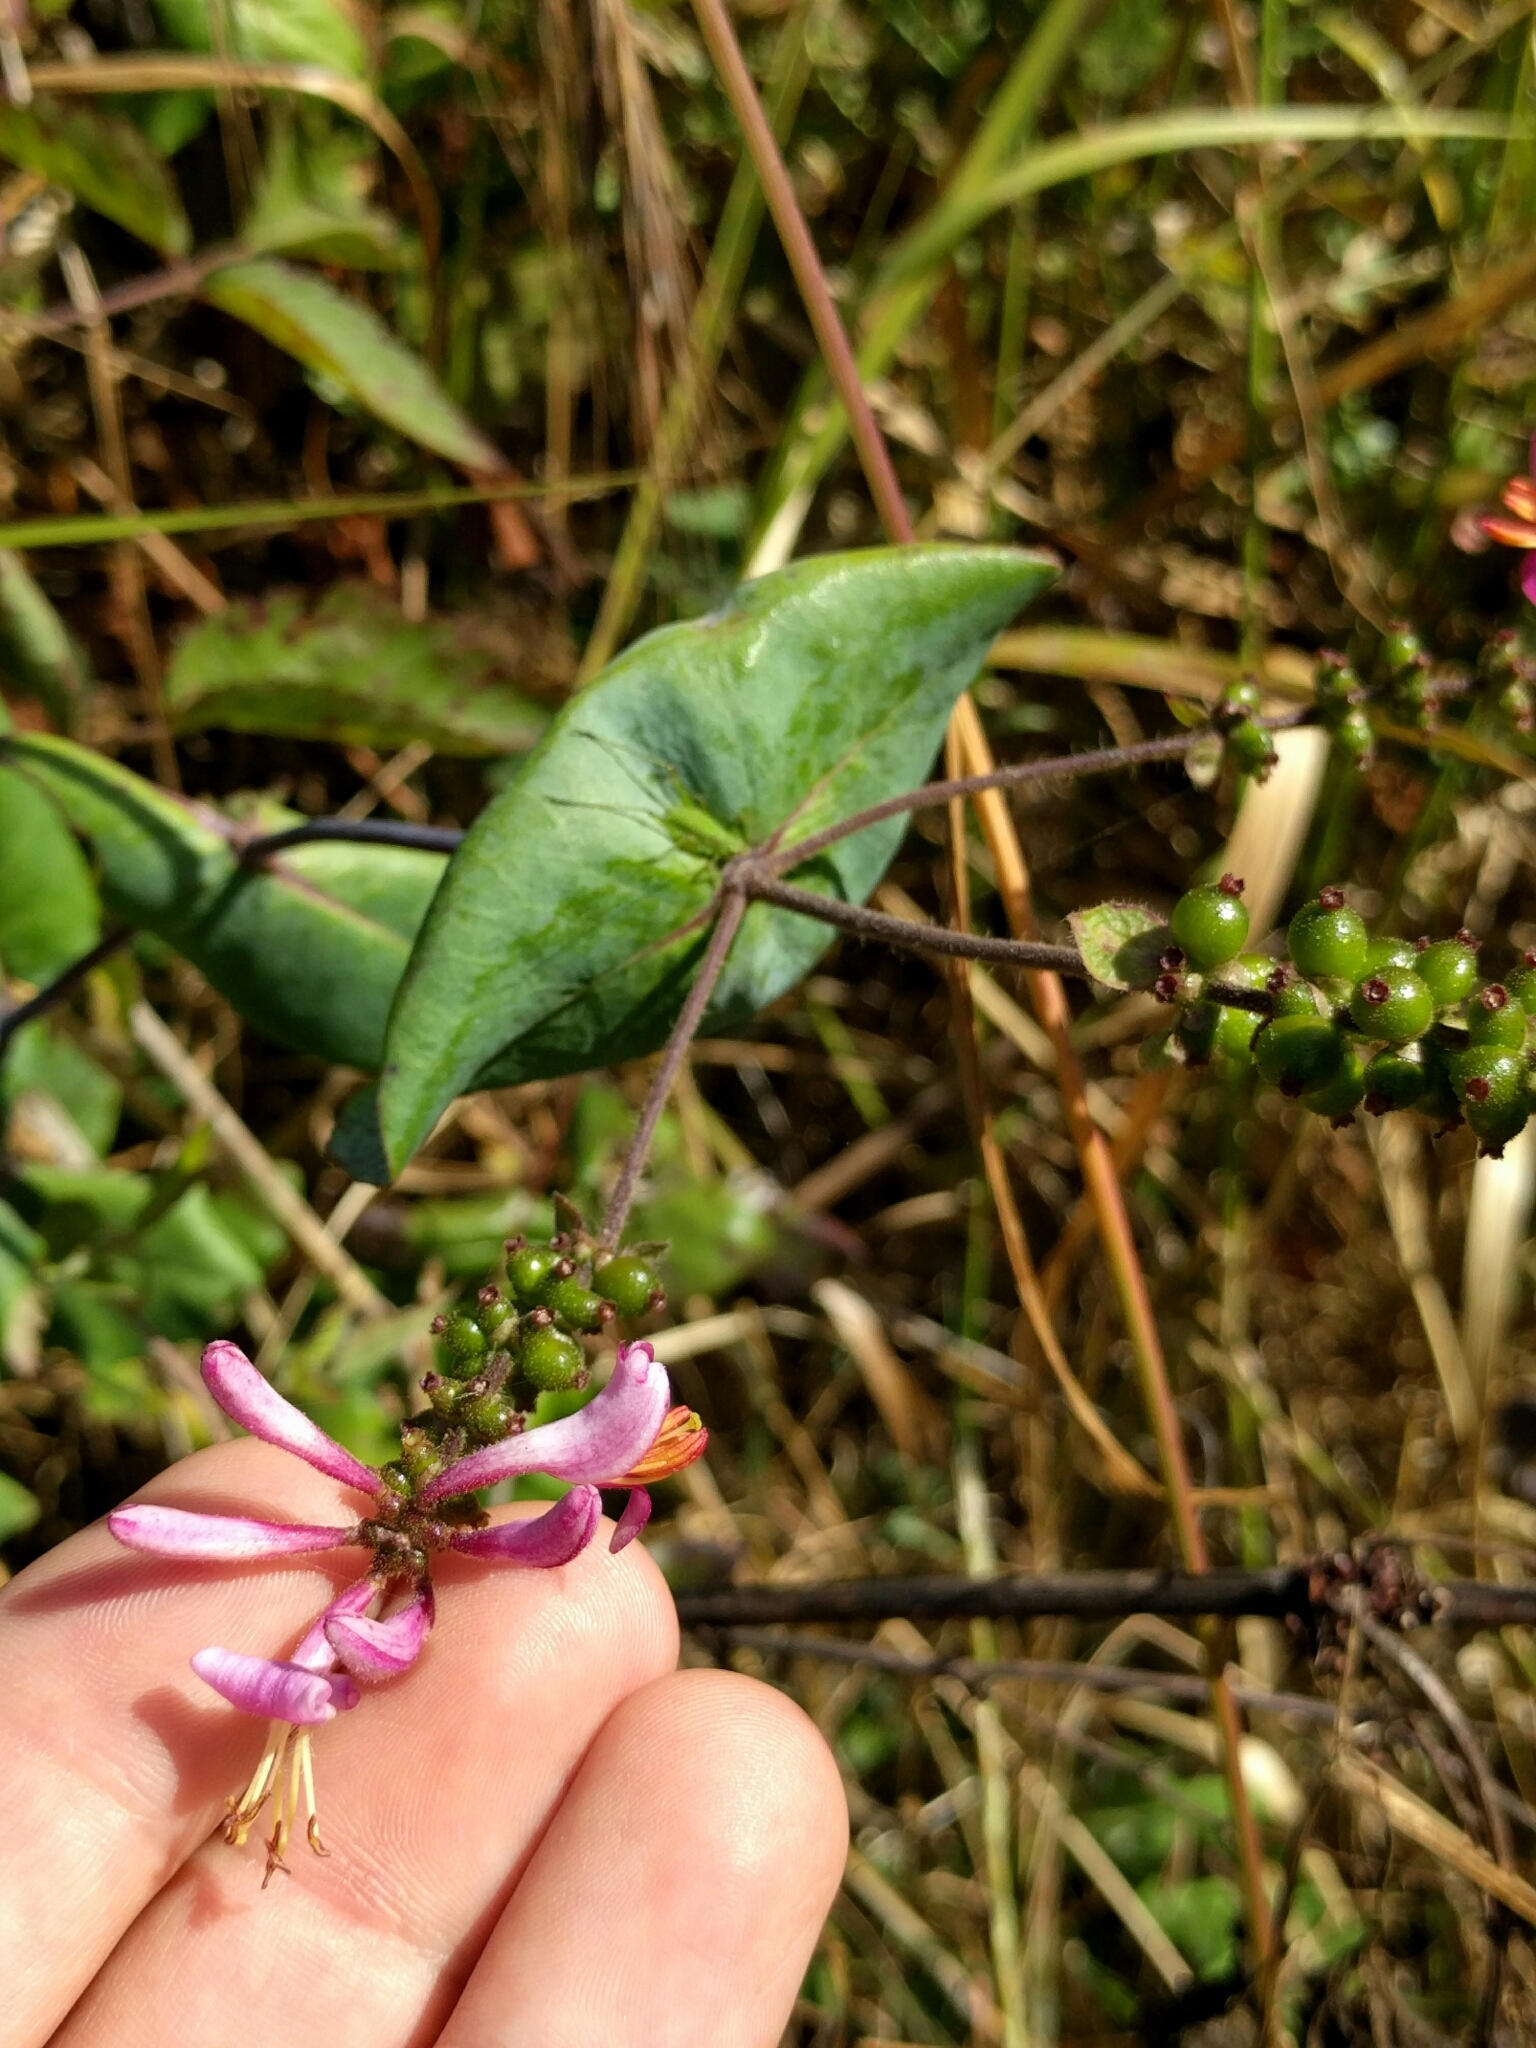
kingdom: Plantae
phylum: Tracheophyta
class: Magnoliopsida
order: Dipsacales
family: Caprifoliaceae
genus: Lonicera
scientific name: Lonicera hispidula
